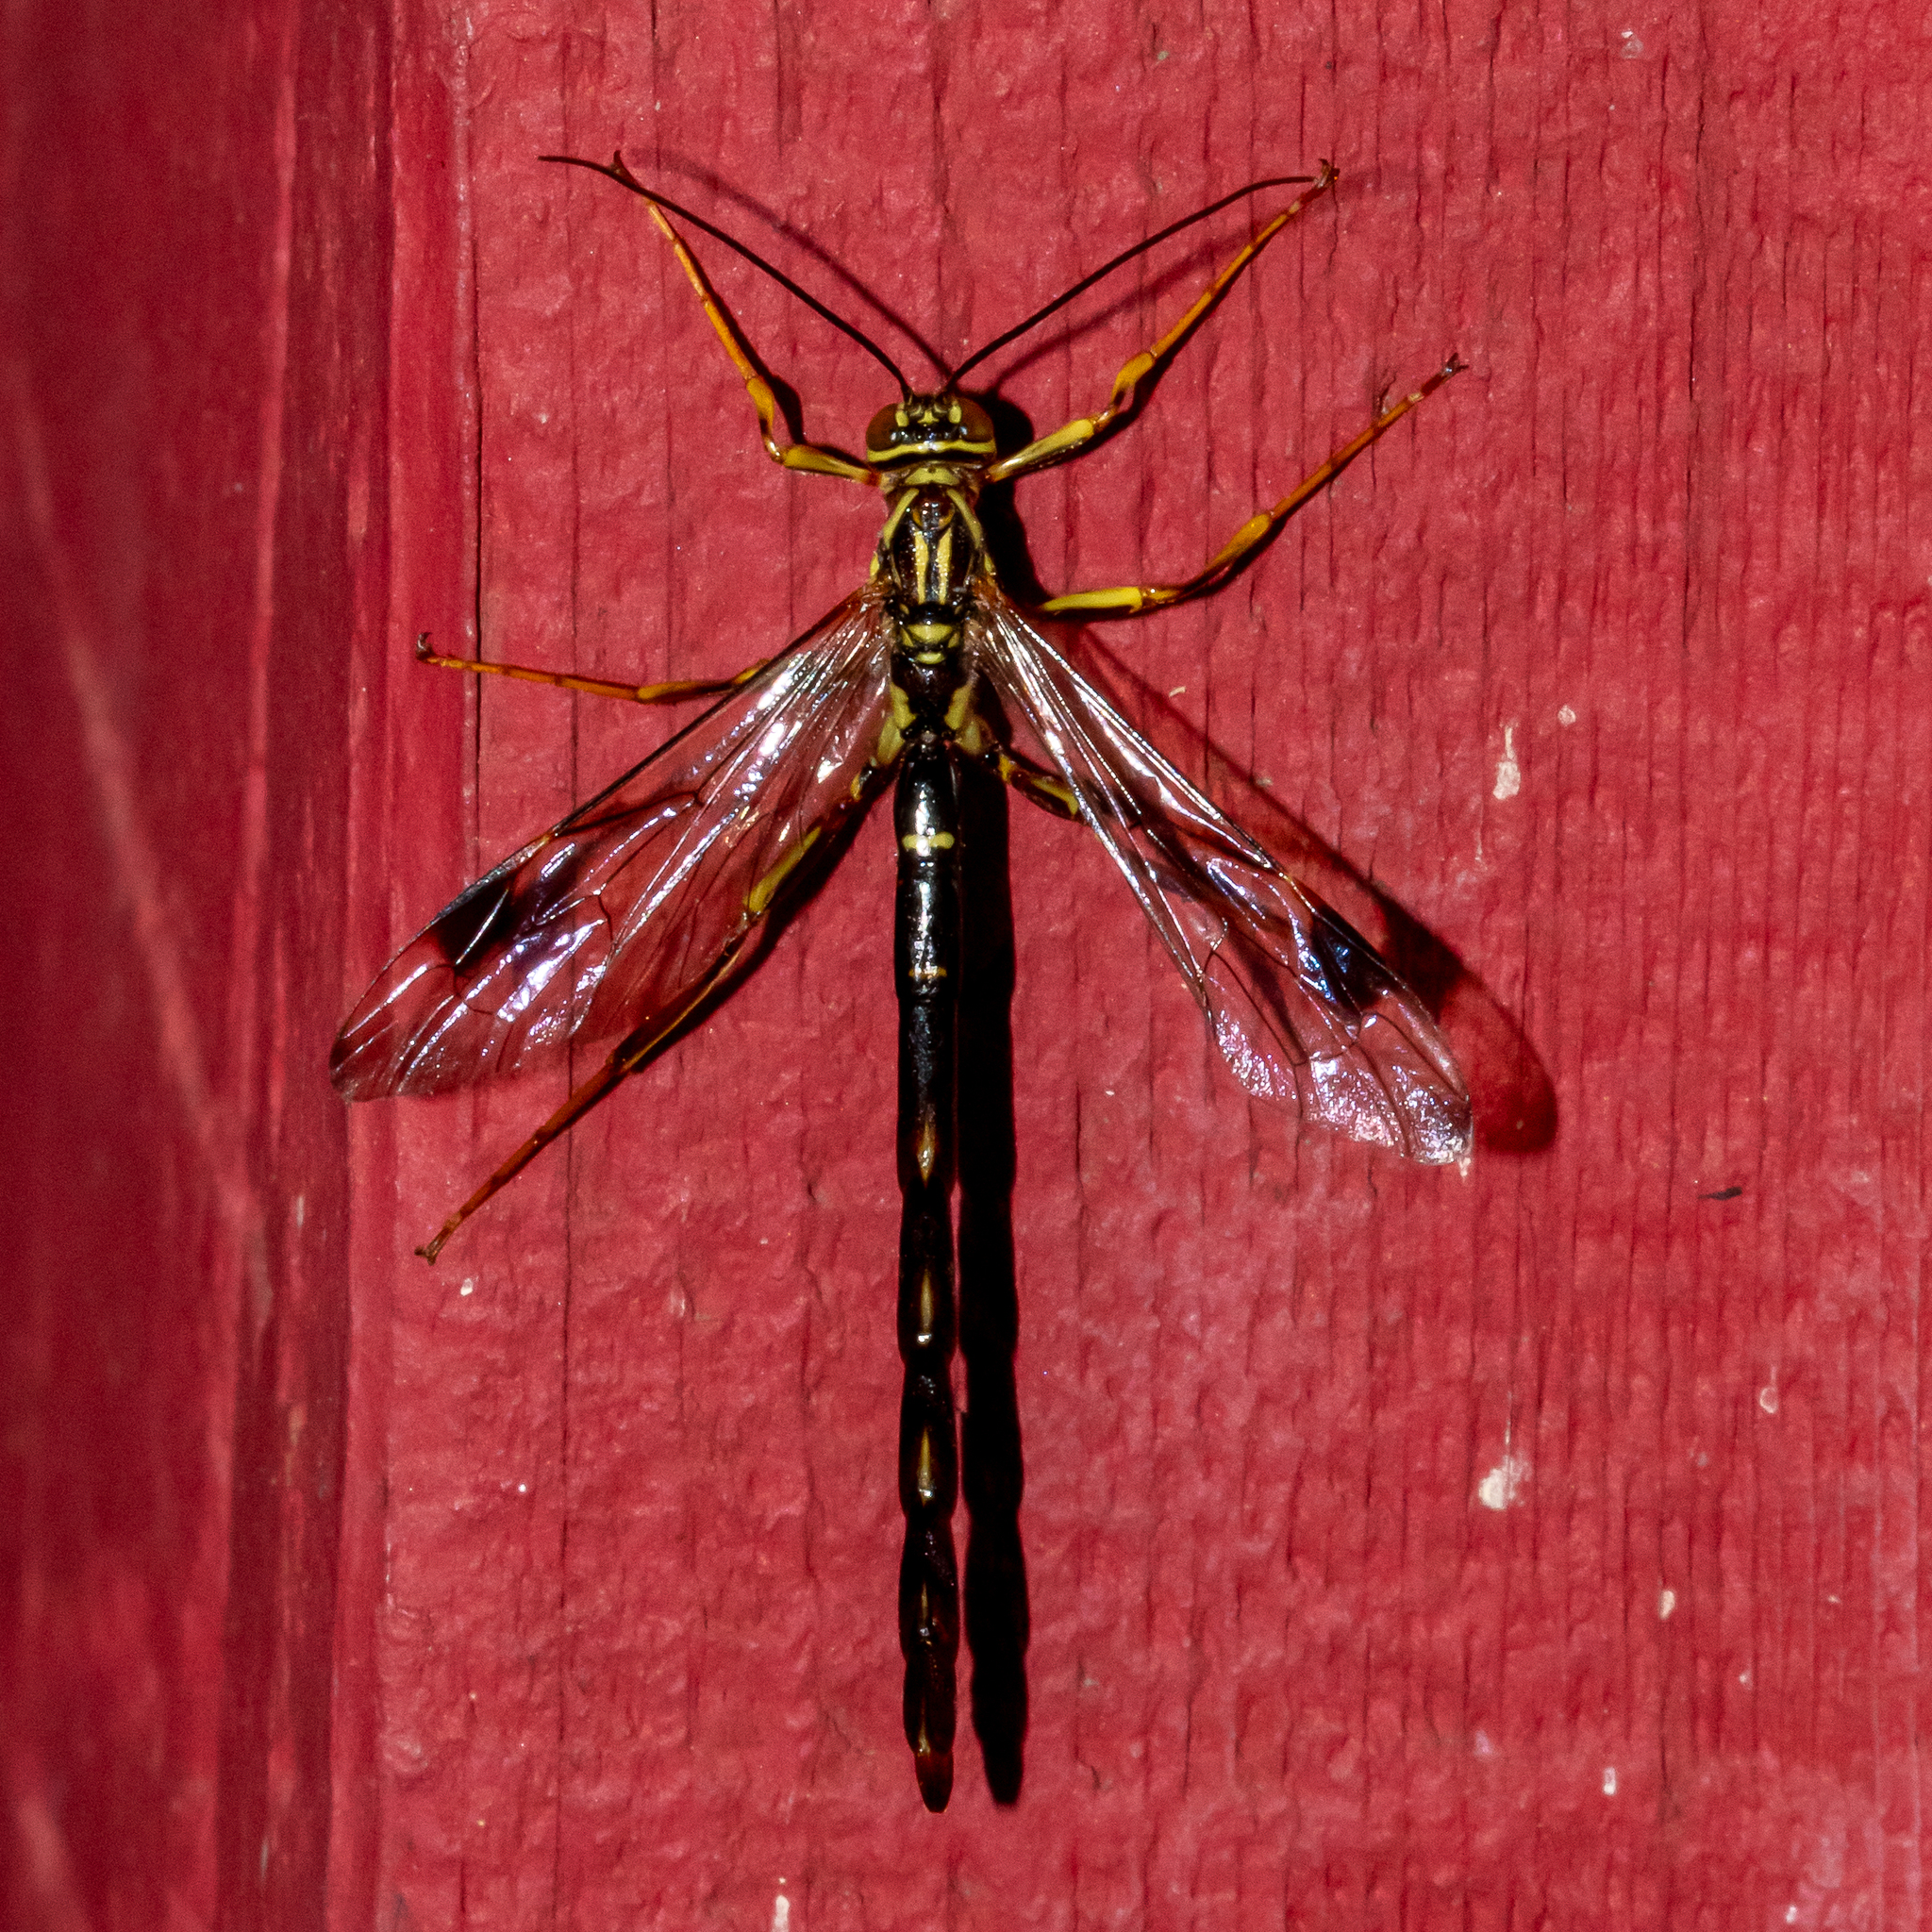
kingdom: Animalia
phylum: Arthropoda
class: Insecta
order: Hymenoptera
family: Ichneumonidae
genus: Megarhyssa
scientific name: Megarhyssa macrura
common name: Long-tailed giant ichneumonid wasp
